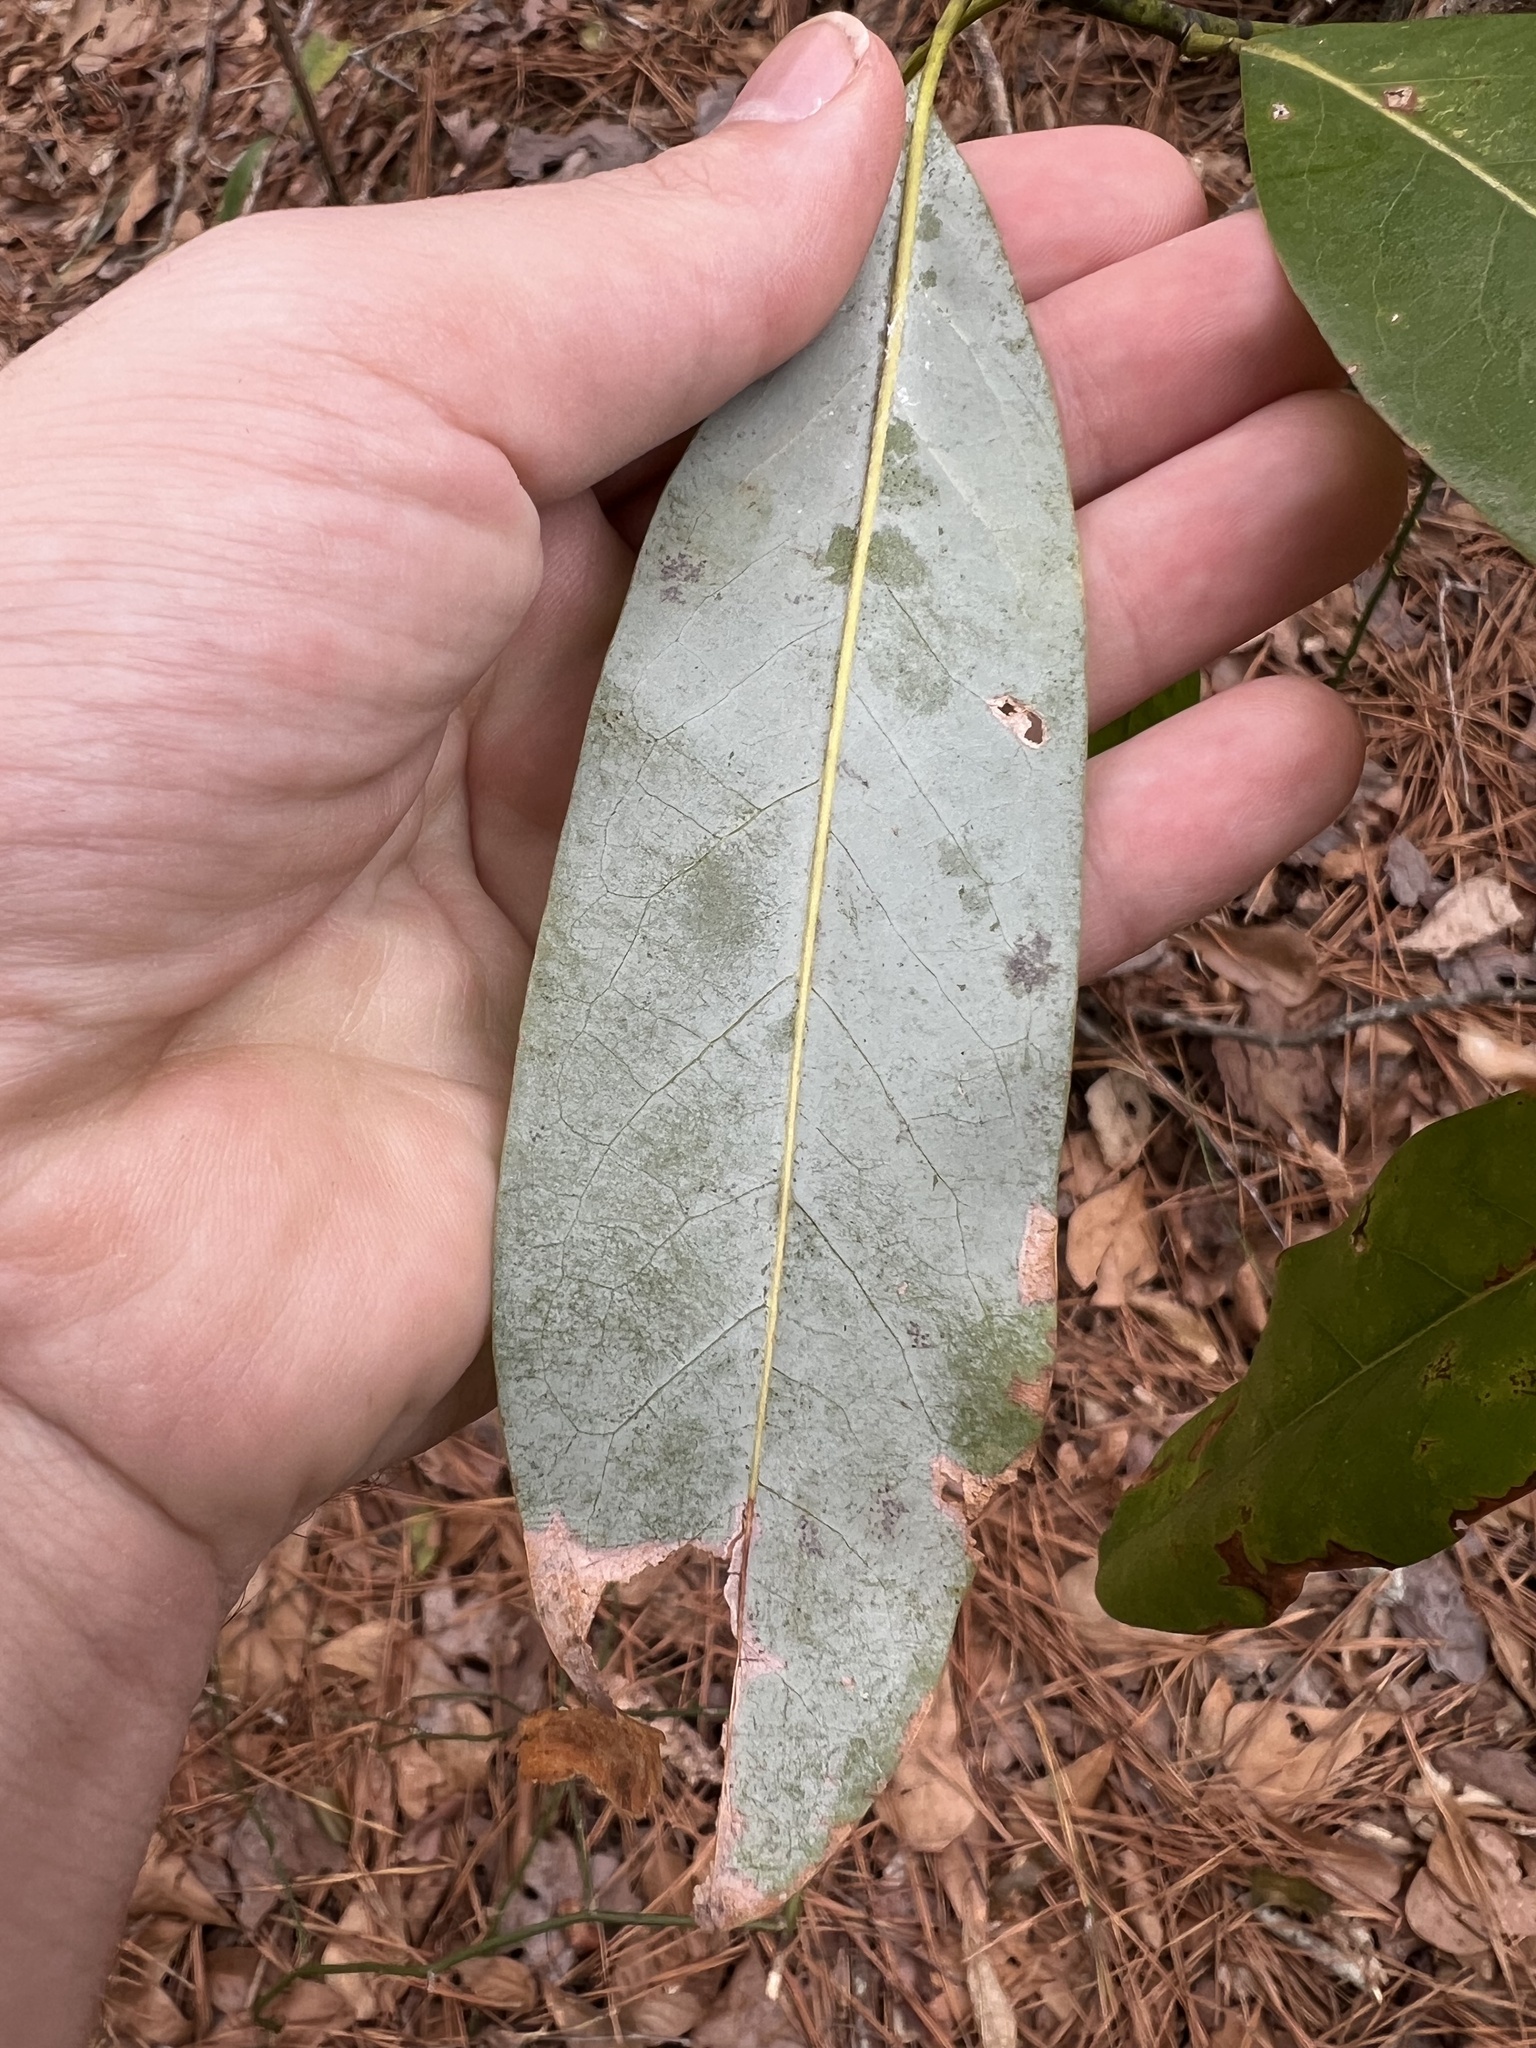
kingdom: Plantae
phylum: Tracheophyta
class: Magnoliopsida
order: Magnoliales
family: Magnoliaceae
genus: Magnolia
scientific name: Magnolia virginiana
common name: Swamp bay
